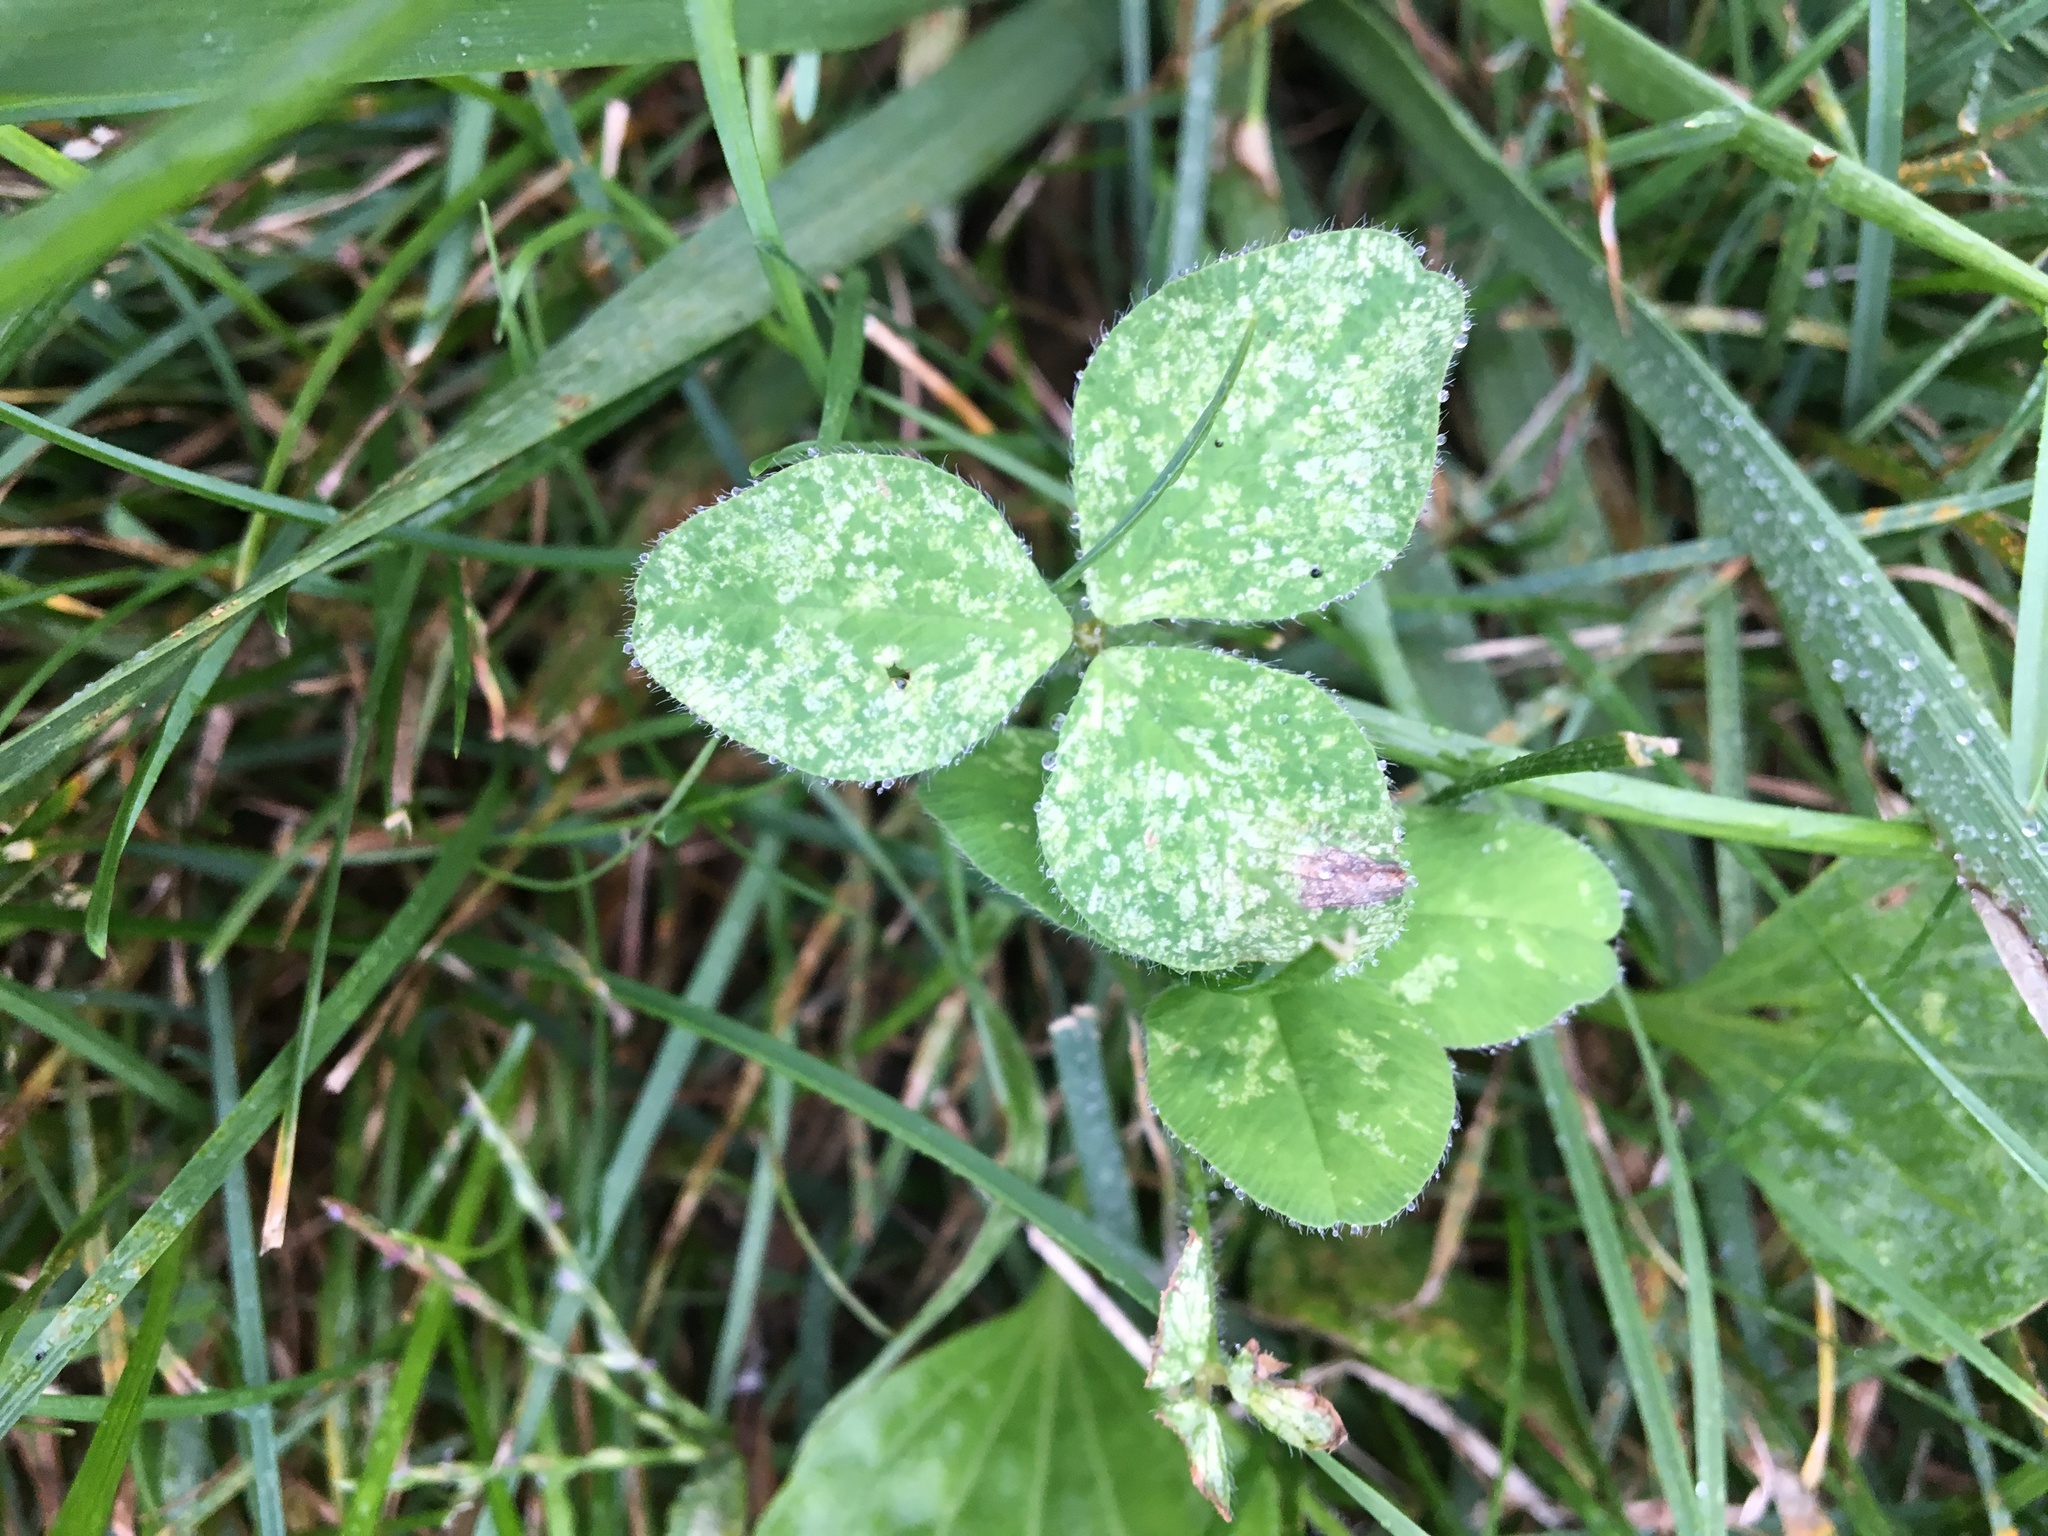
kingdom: Plantae
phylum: Tracheophyta
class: Magnoliopsida
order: Fabales
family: Fabaceae
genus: Trifolium
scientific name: Trifolium pratense
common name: Red clover
